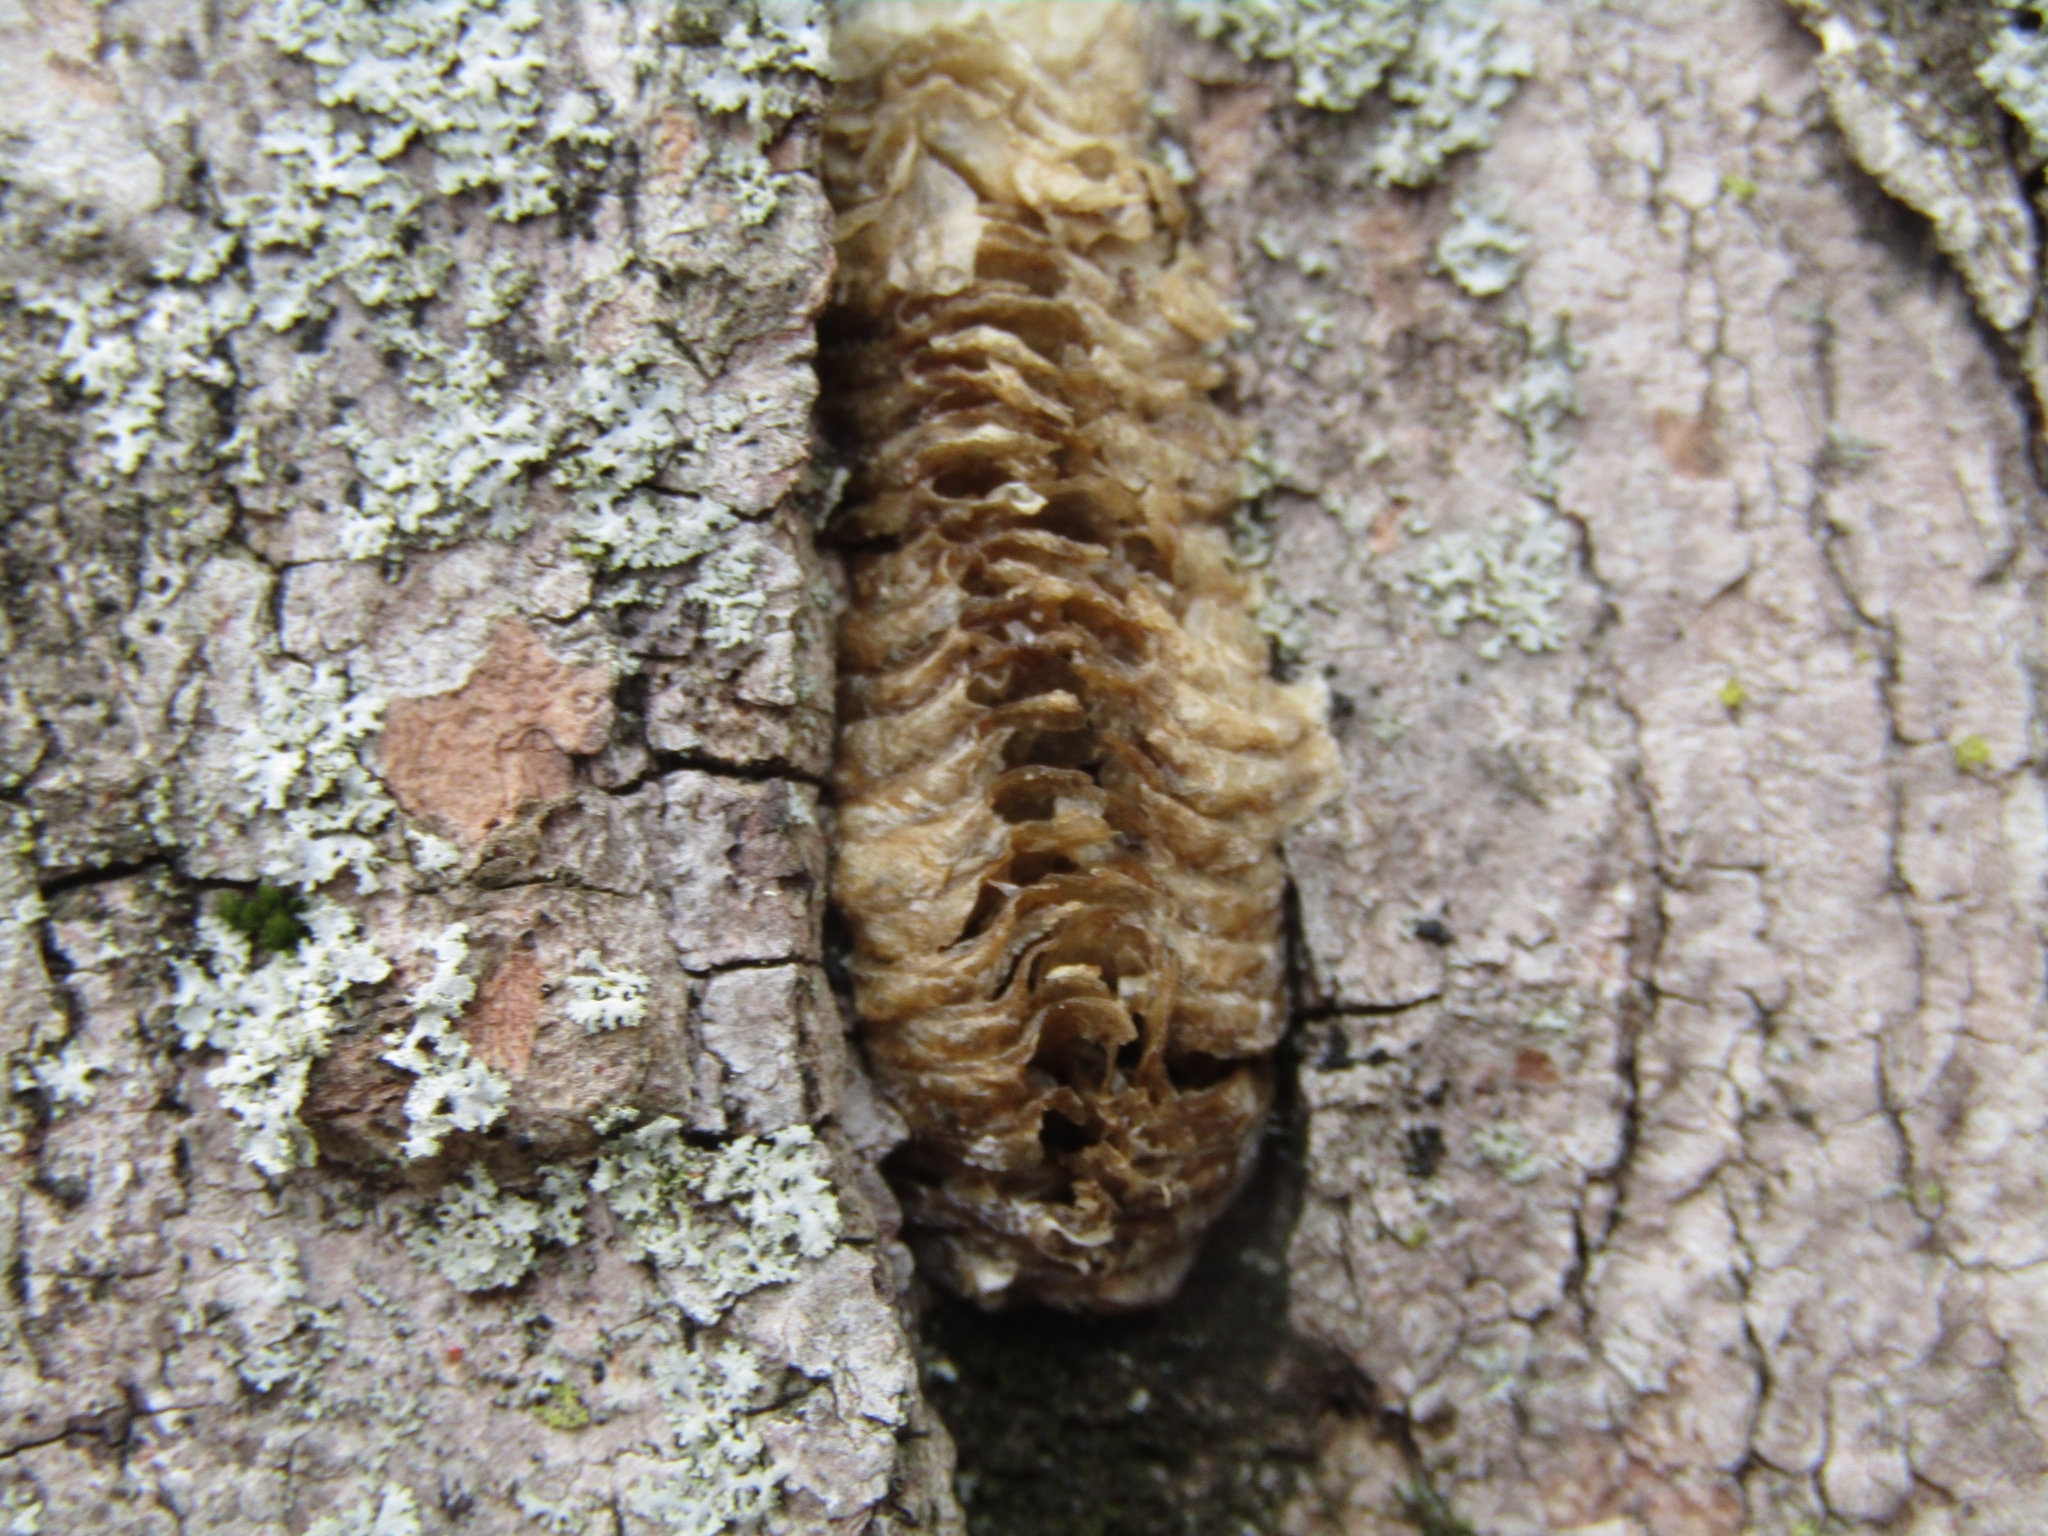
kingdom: Animalia
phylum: Arthropoda
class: Insecta
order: Mantodea
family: Mantidae
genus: Stagmomantis
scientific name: Stagmomantis carolina
